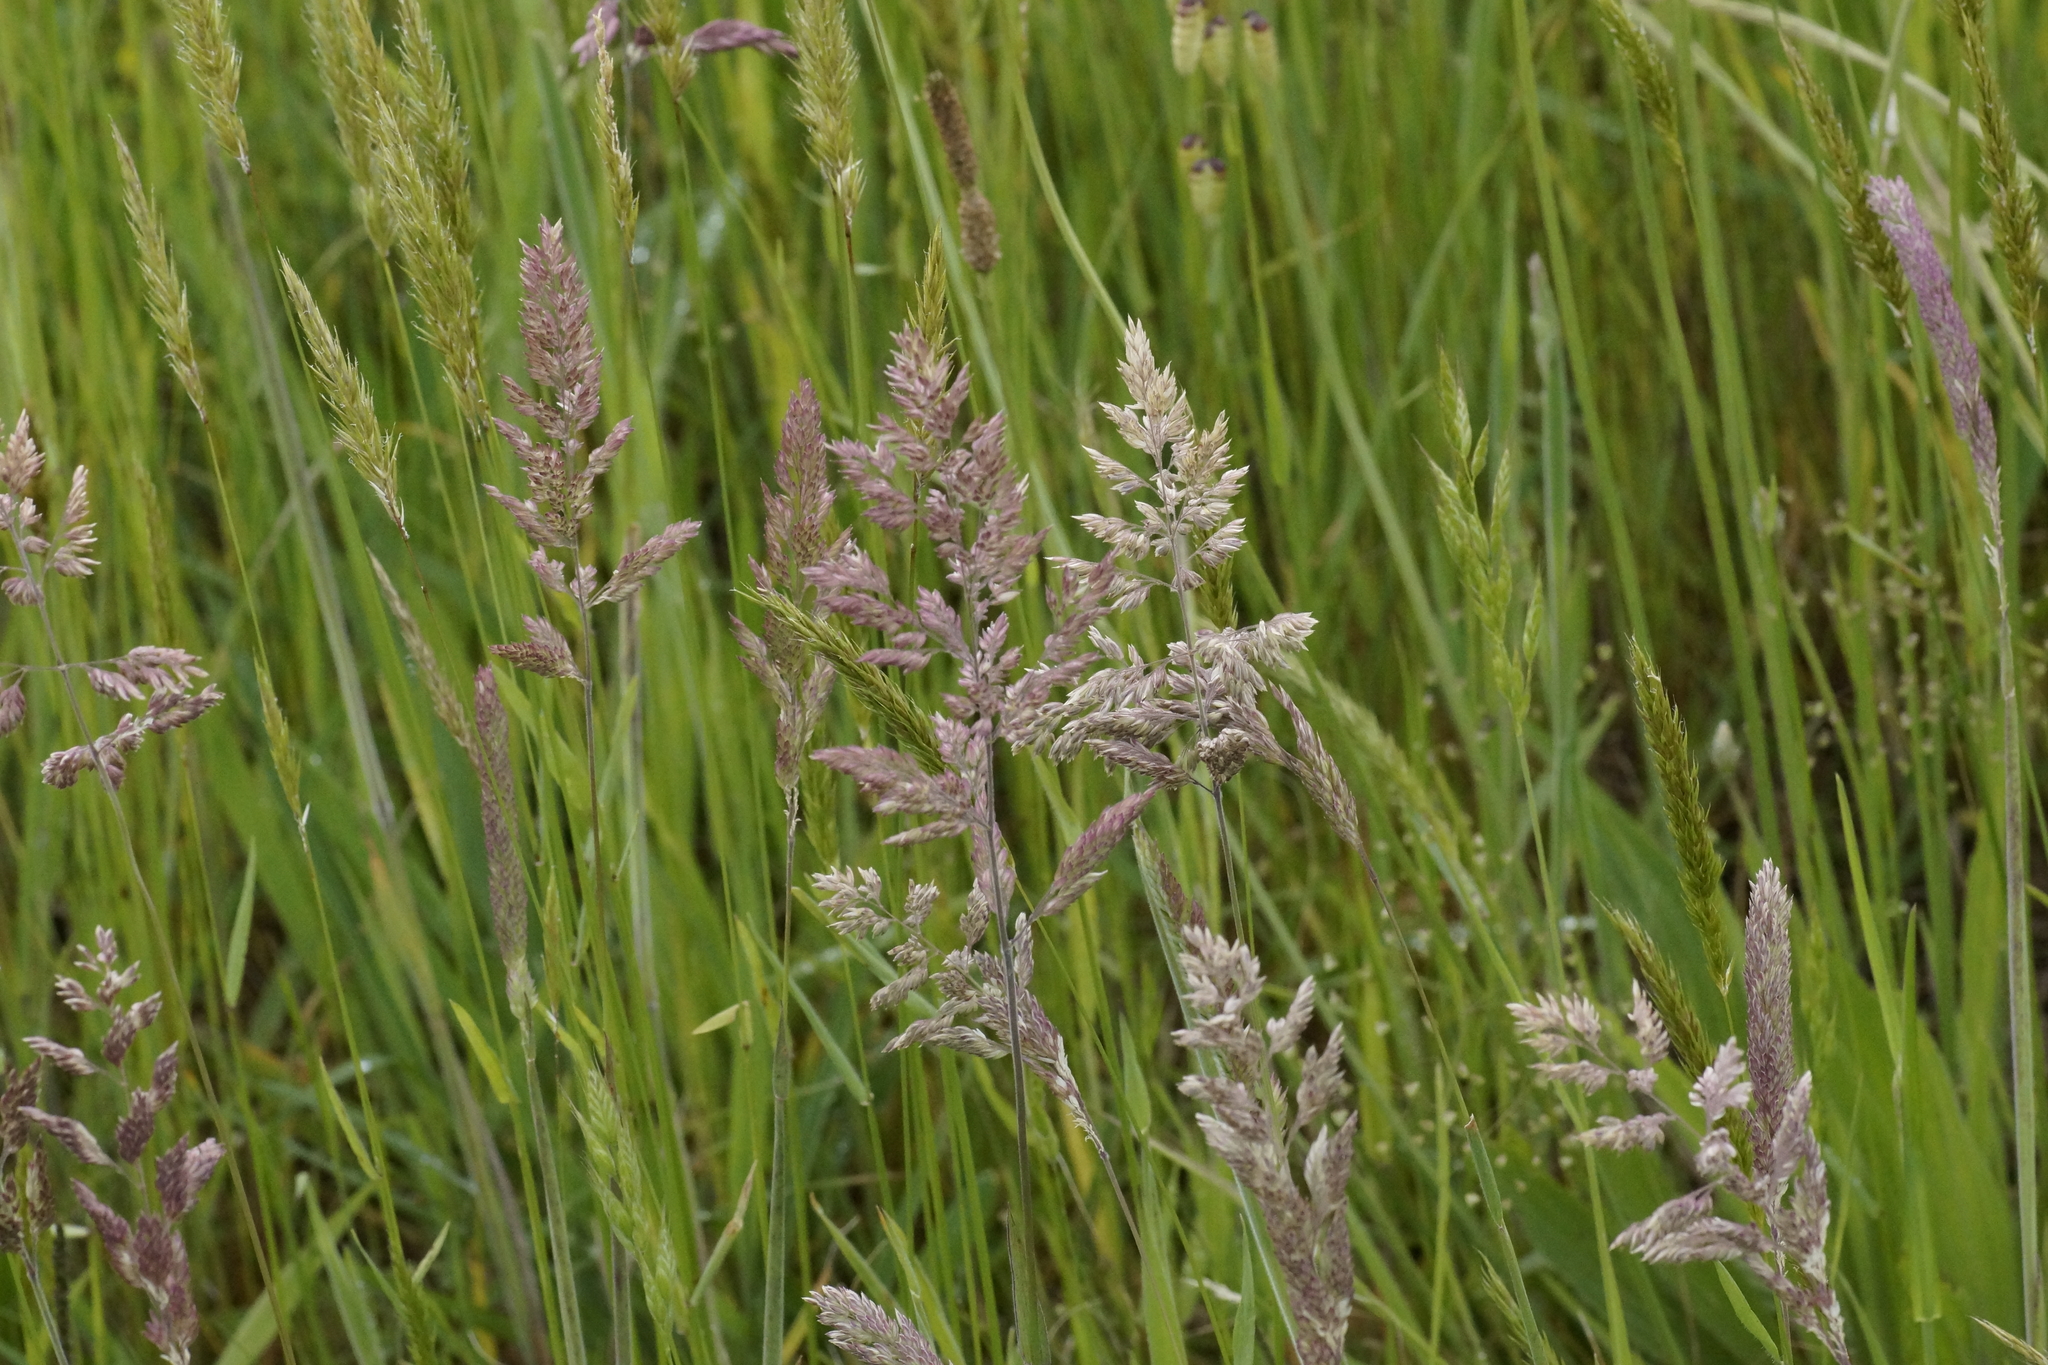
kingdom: Plantae
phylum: Tracheophyta
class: Liliopsida
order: Poales
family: Poaceae
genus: Holcus
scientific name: Holcus lanatus
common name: Yorkshire-fog
